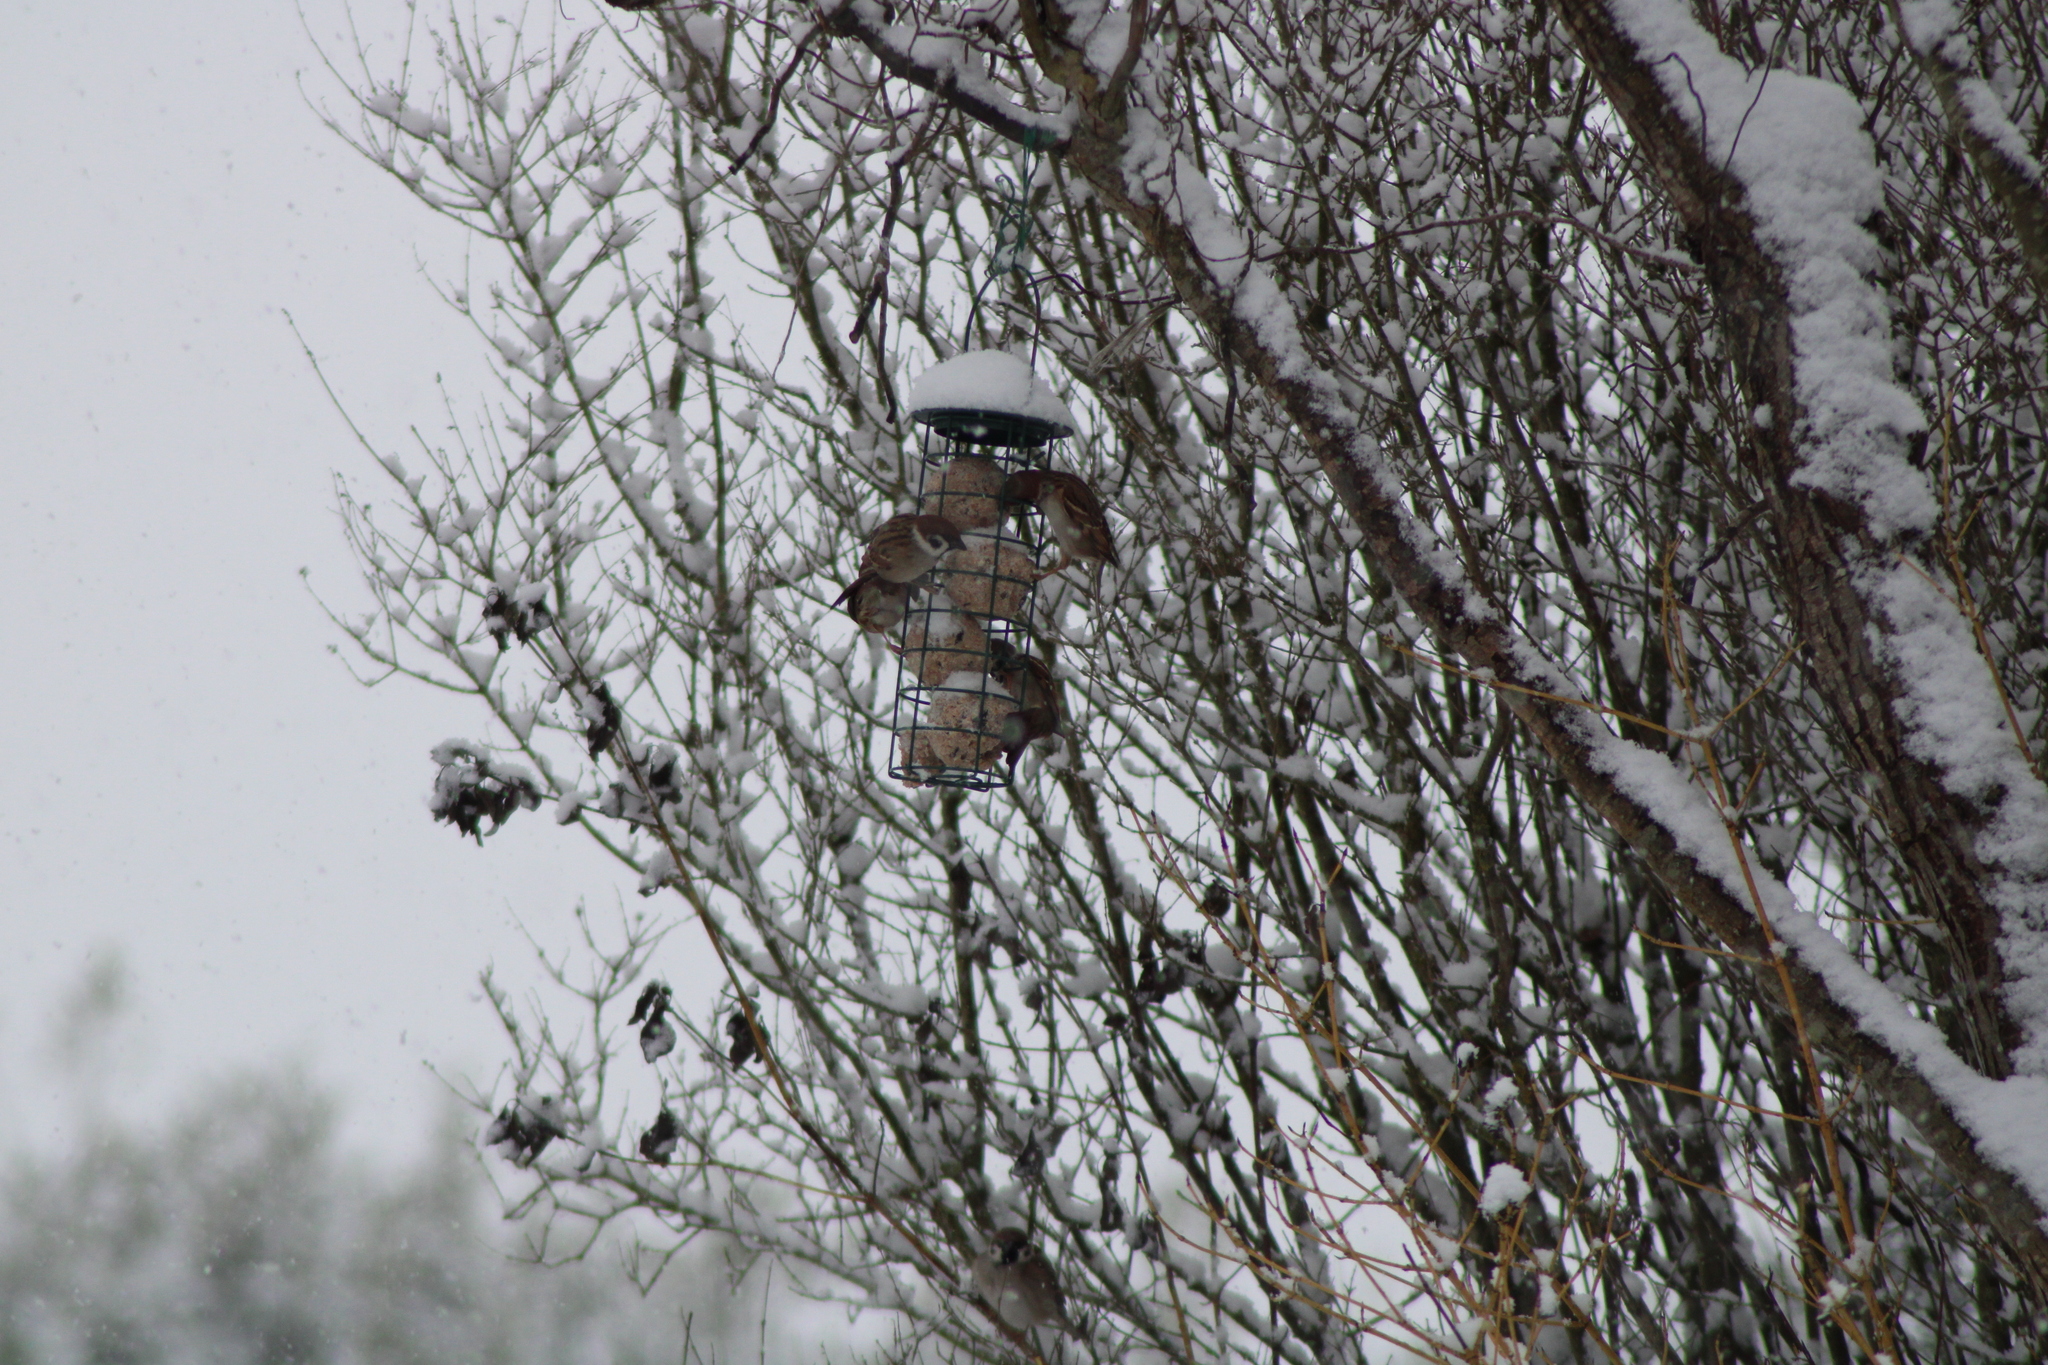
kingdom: Animalia
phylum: Chordata
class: Aves
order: Passeriformes
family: Passeridae
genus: Passer
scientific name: Passer montanus
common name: Eurasian tree sparrow
